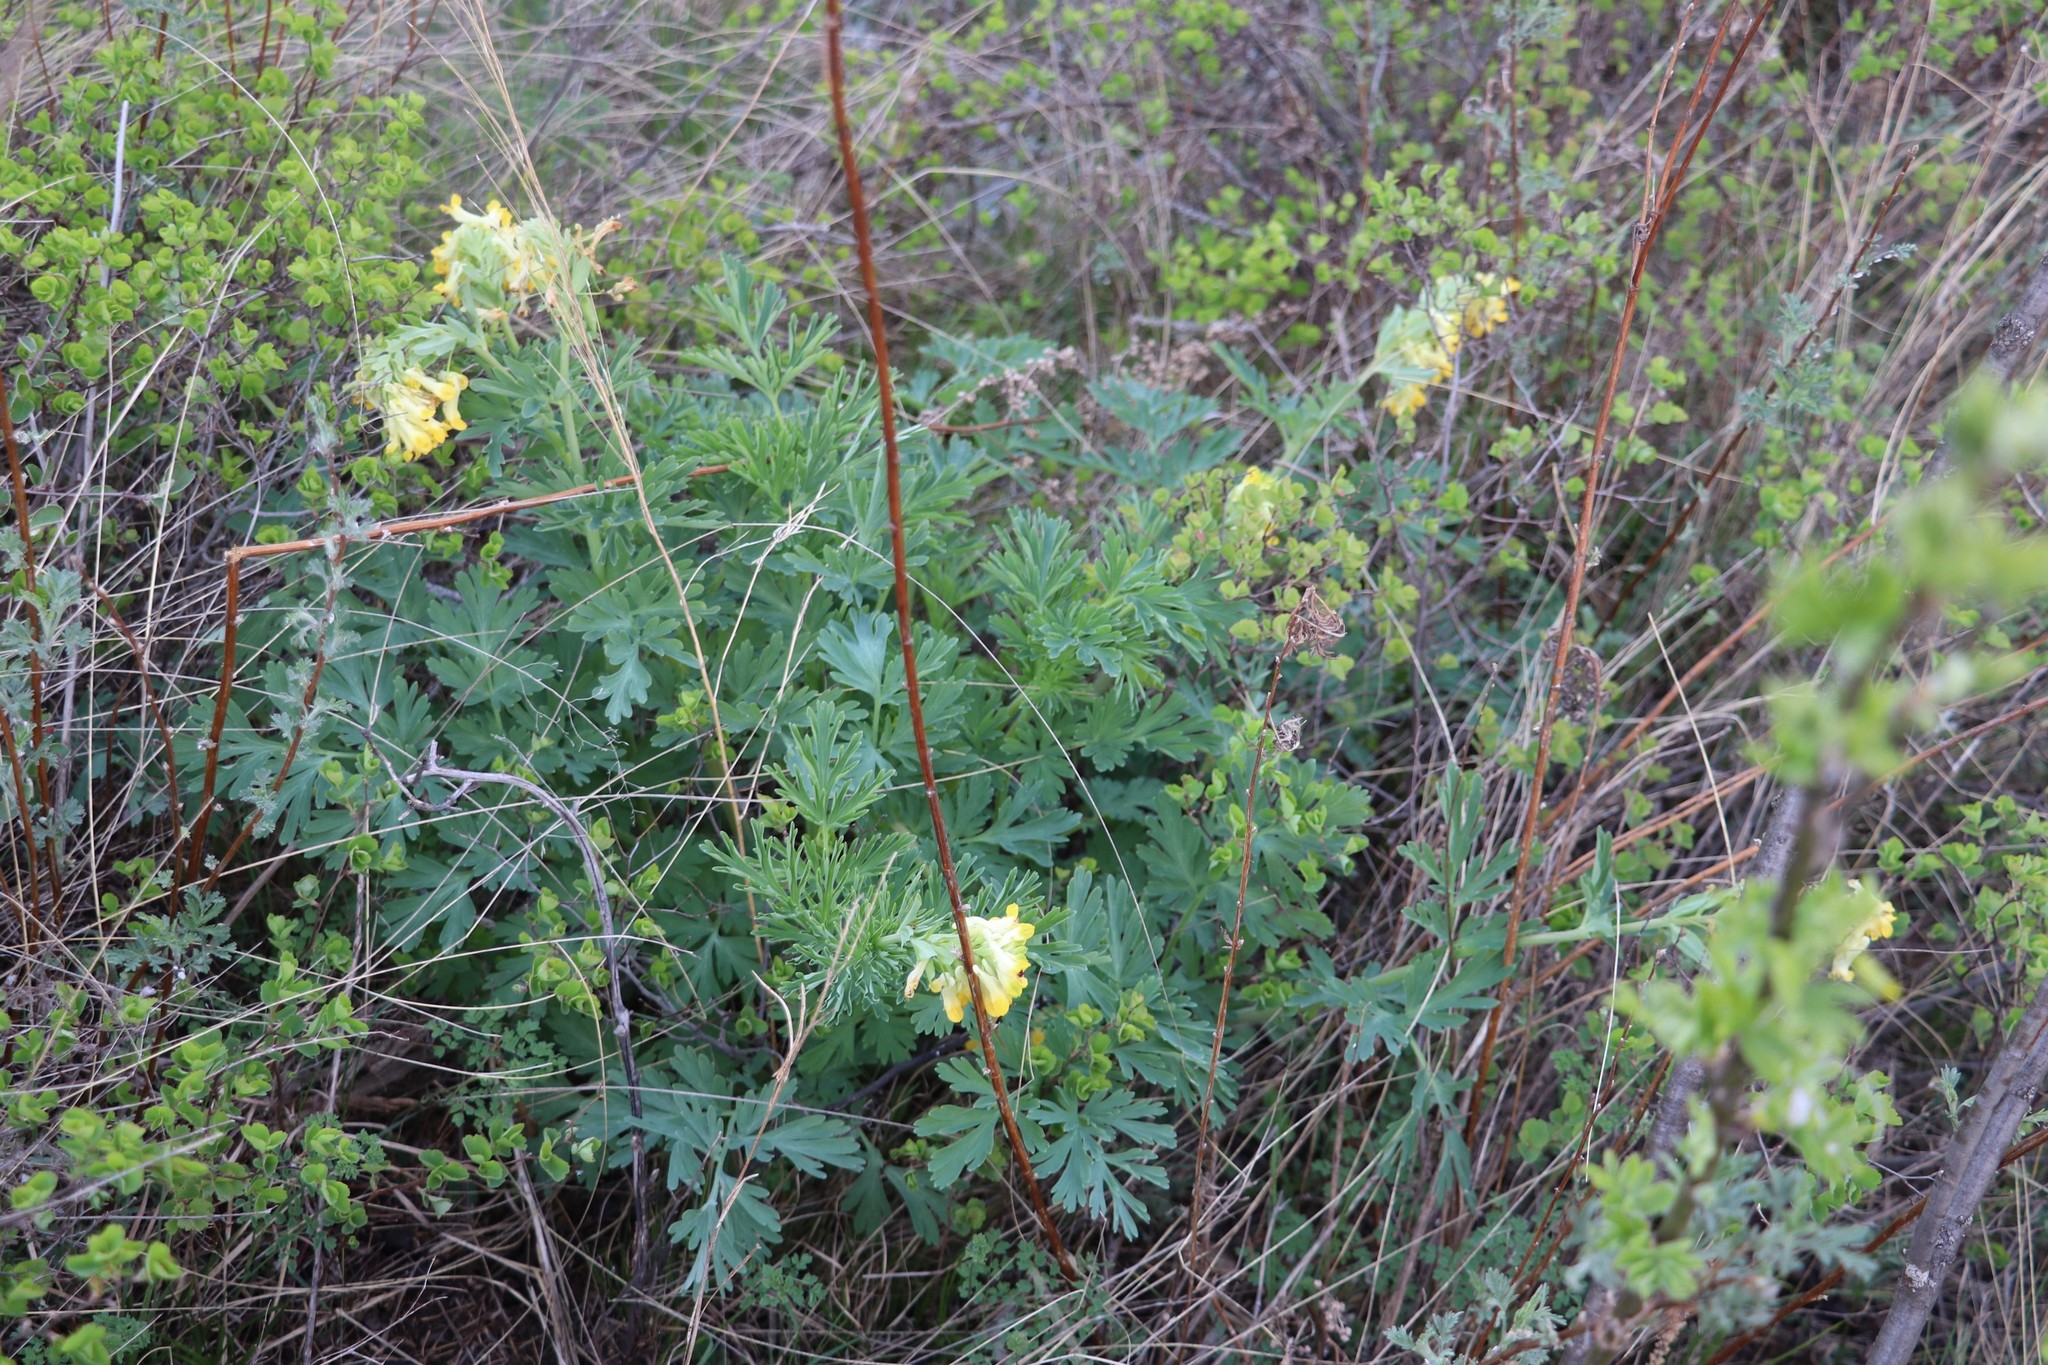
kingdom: Plantae
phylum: Tracheophyta
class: Magnoliopsida
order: Ranunculales
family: Papaveraceae
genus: Corydalis
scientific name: Corydalis nobilis
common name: Siberian corydalis
